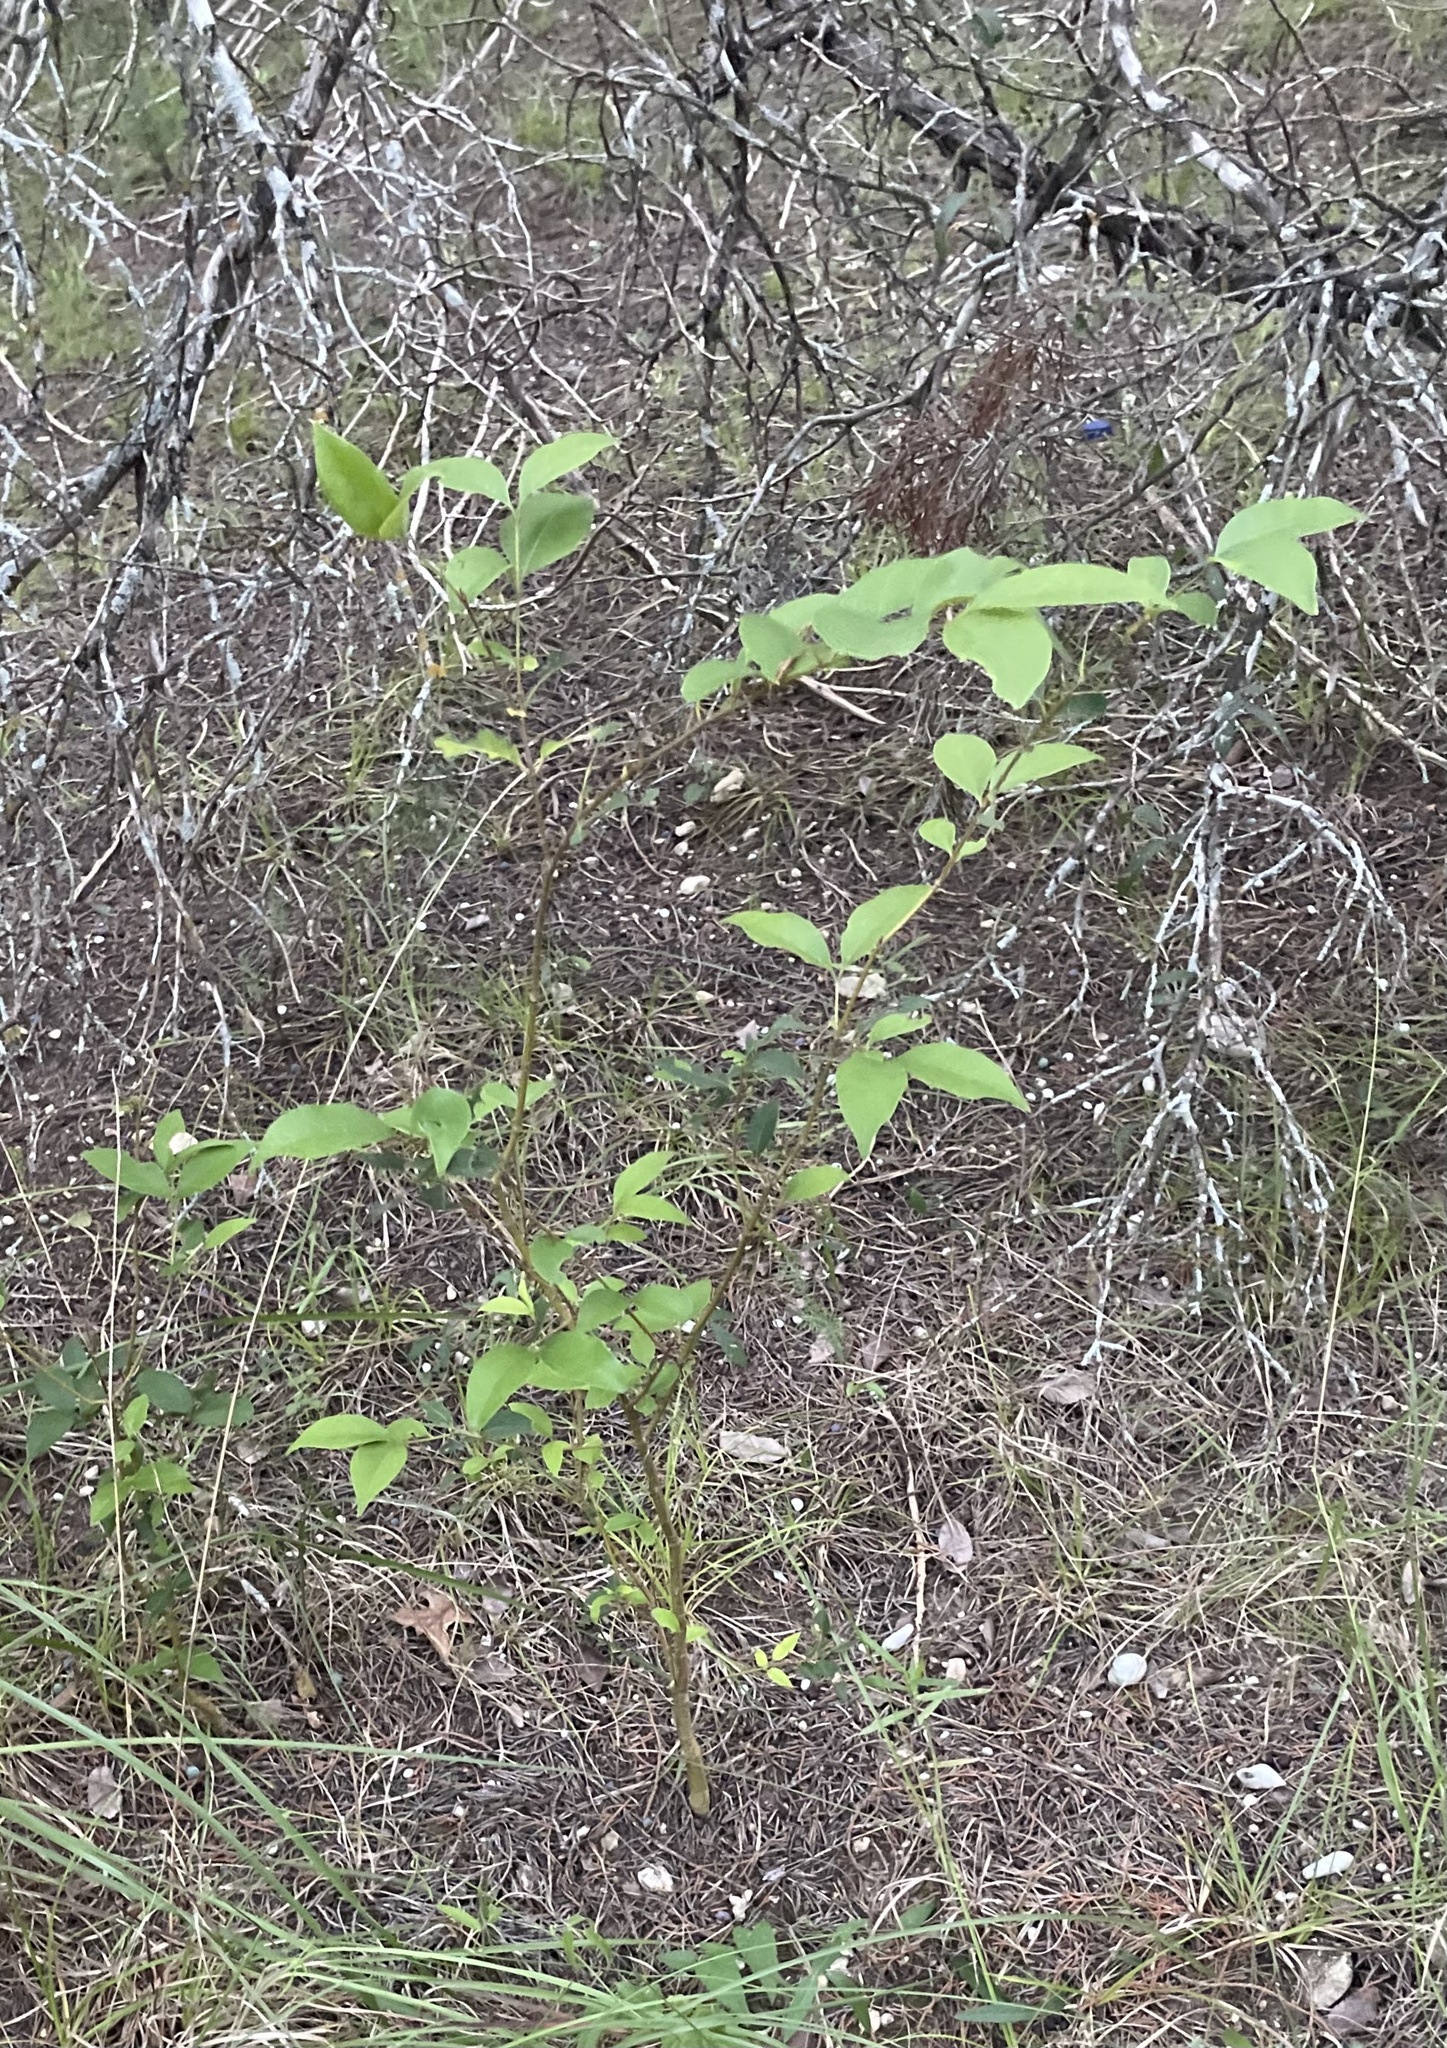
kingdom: Plantae
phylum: Tracheophyta
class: Magnoliopsida
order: Lamiales
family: Oleaceae
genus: Ligustrum
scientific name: Ligustrum lucidum
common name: Glossy privet
